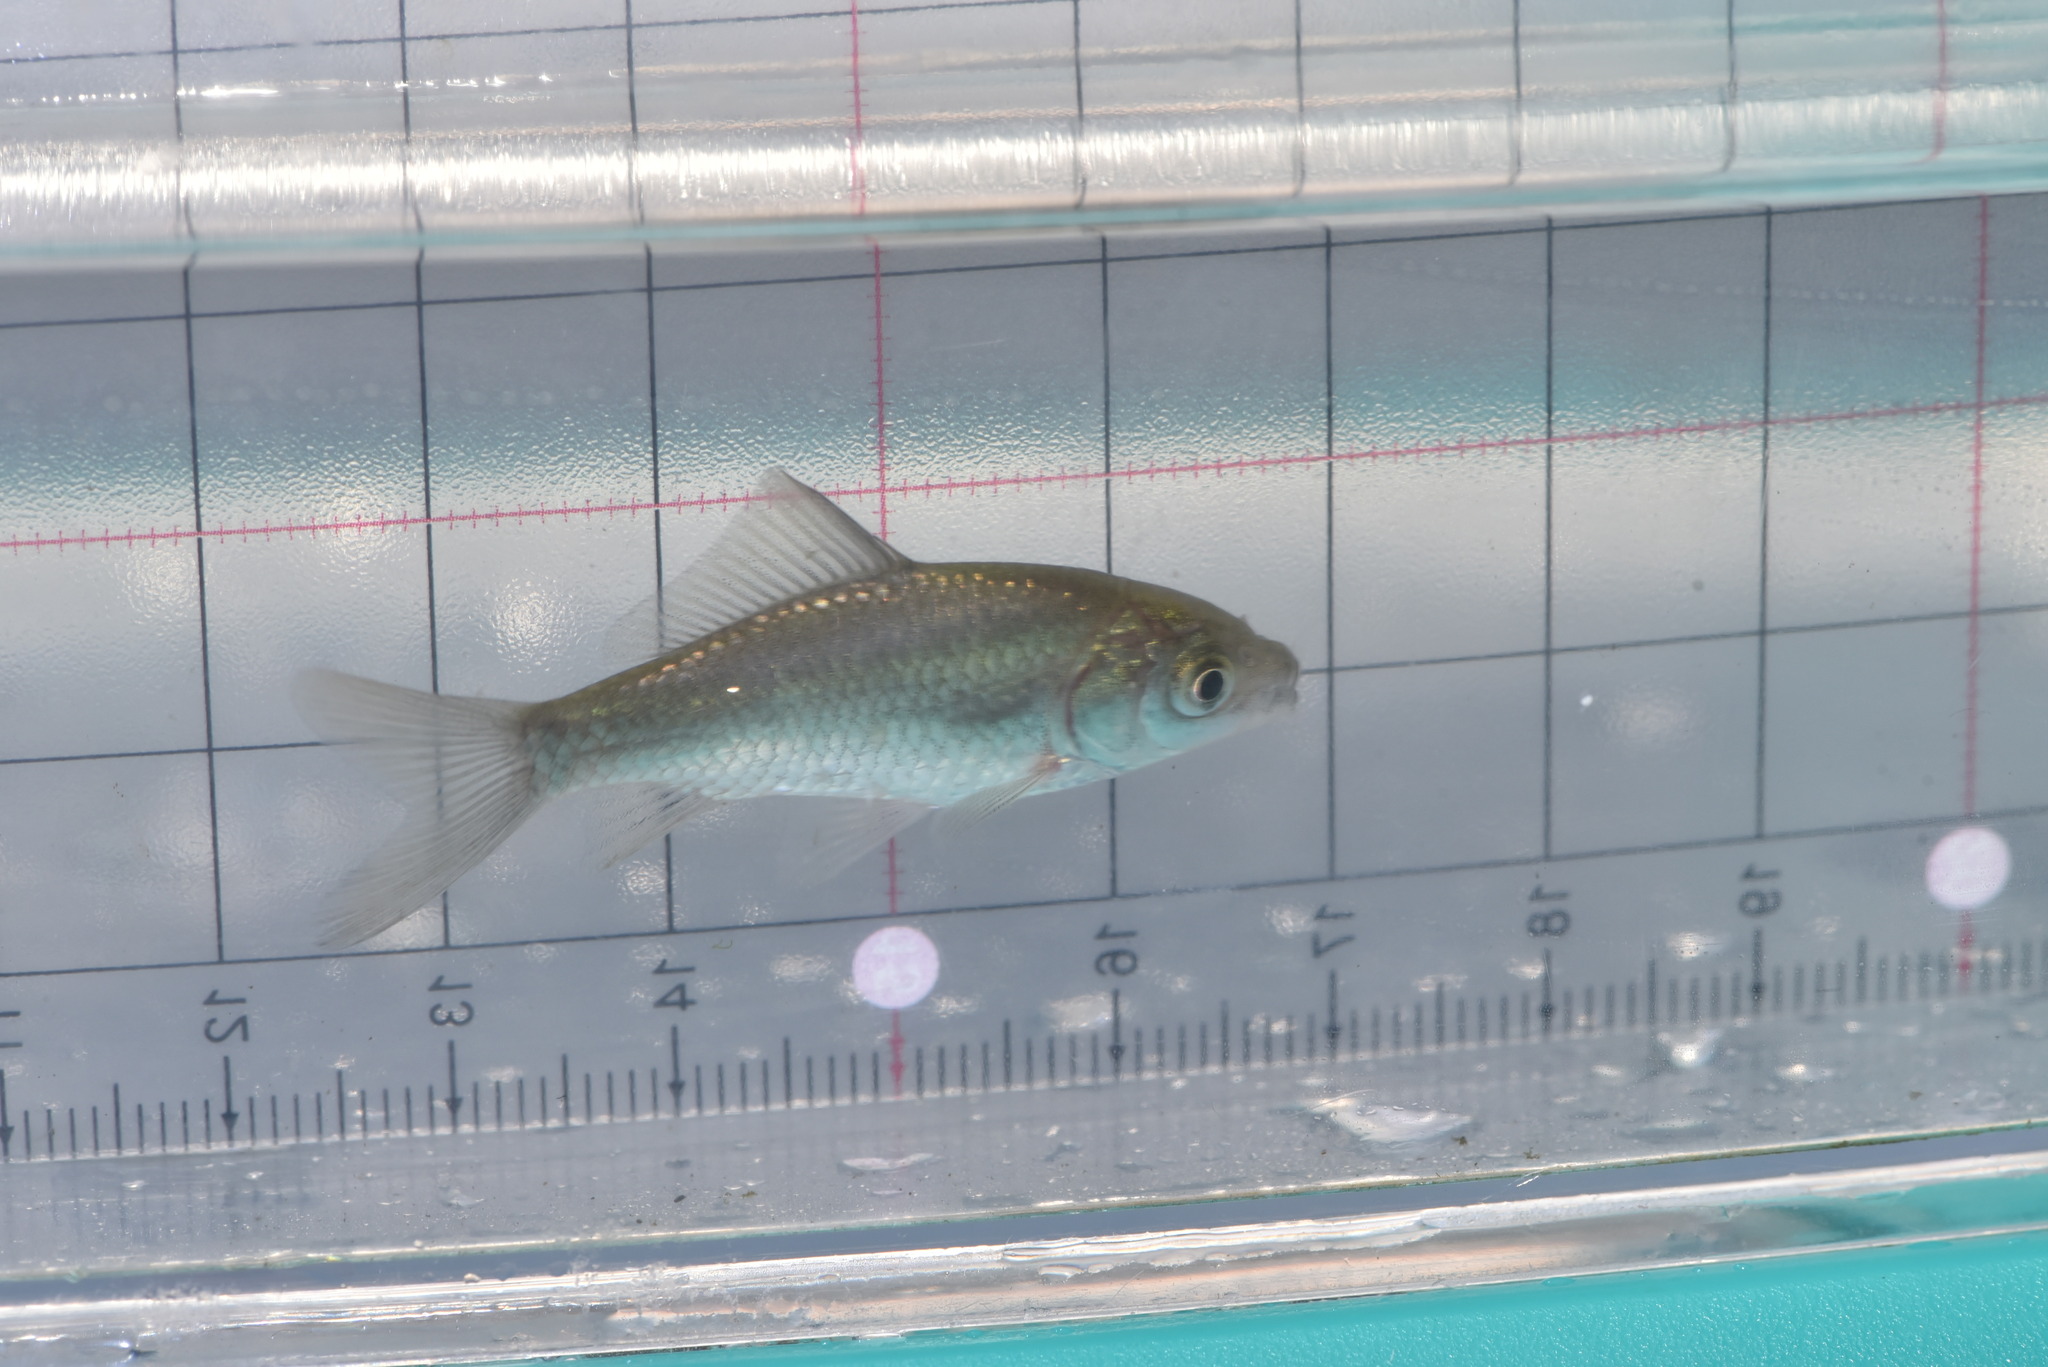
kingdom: Animalia
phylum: Chordata
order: Cypriniformes
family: Cyprinidae
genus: Carassius
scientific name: Carassius auratus
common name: Goldfish
